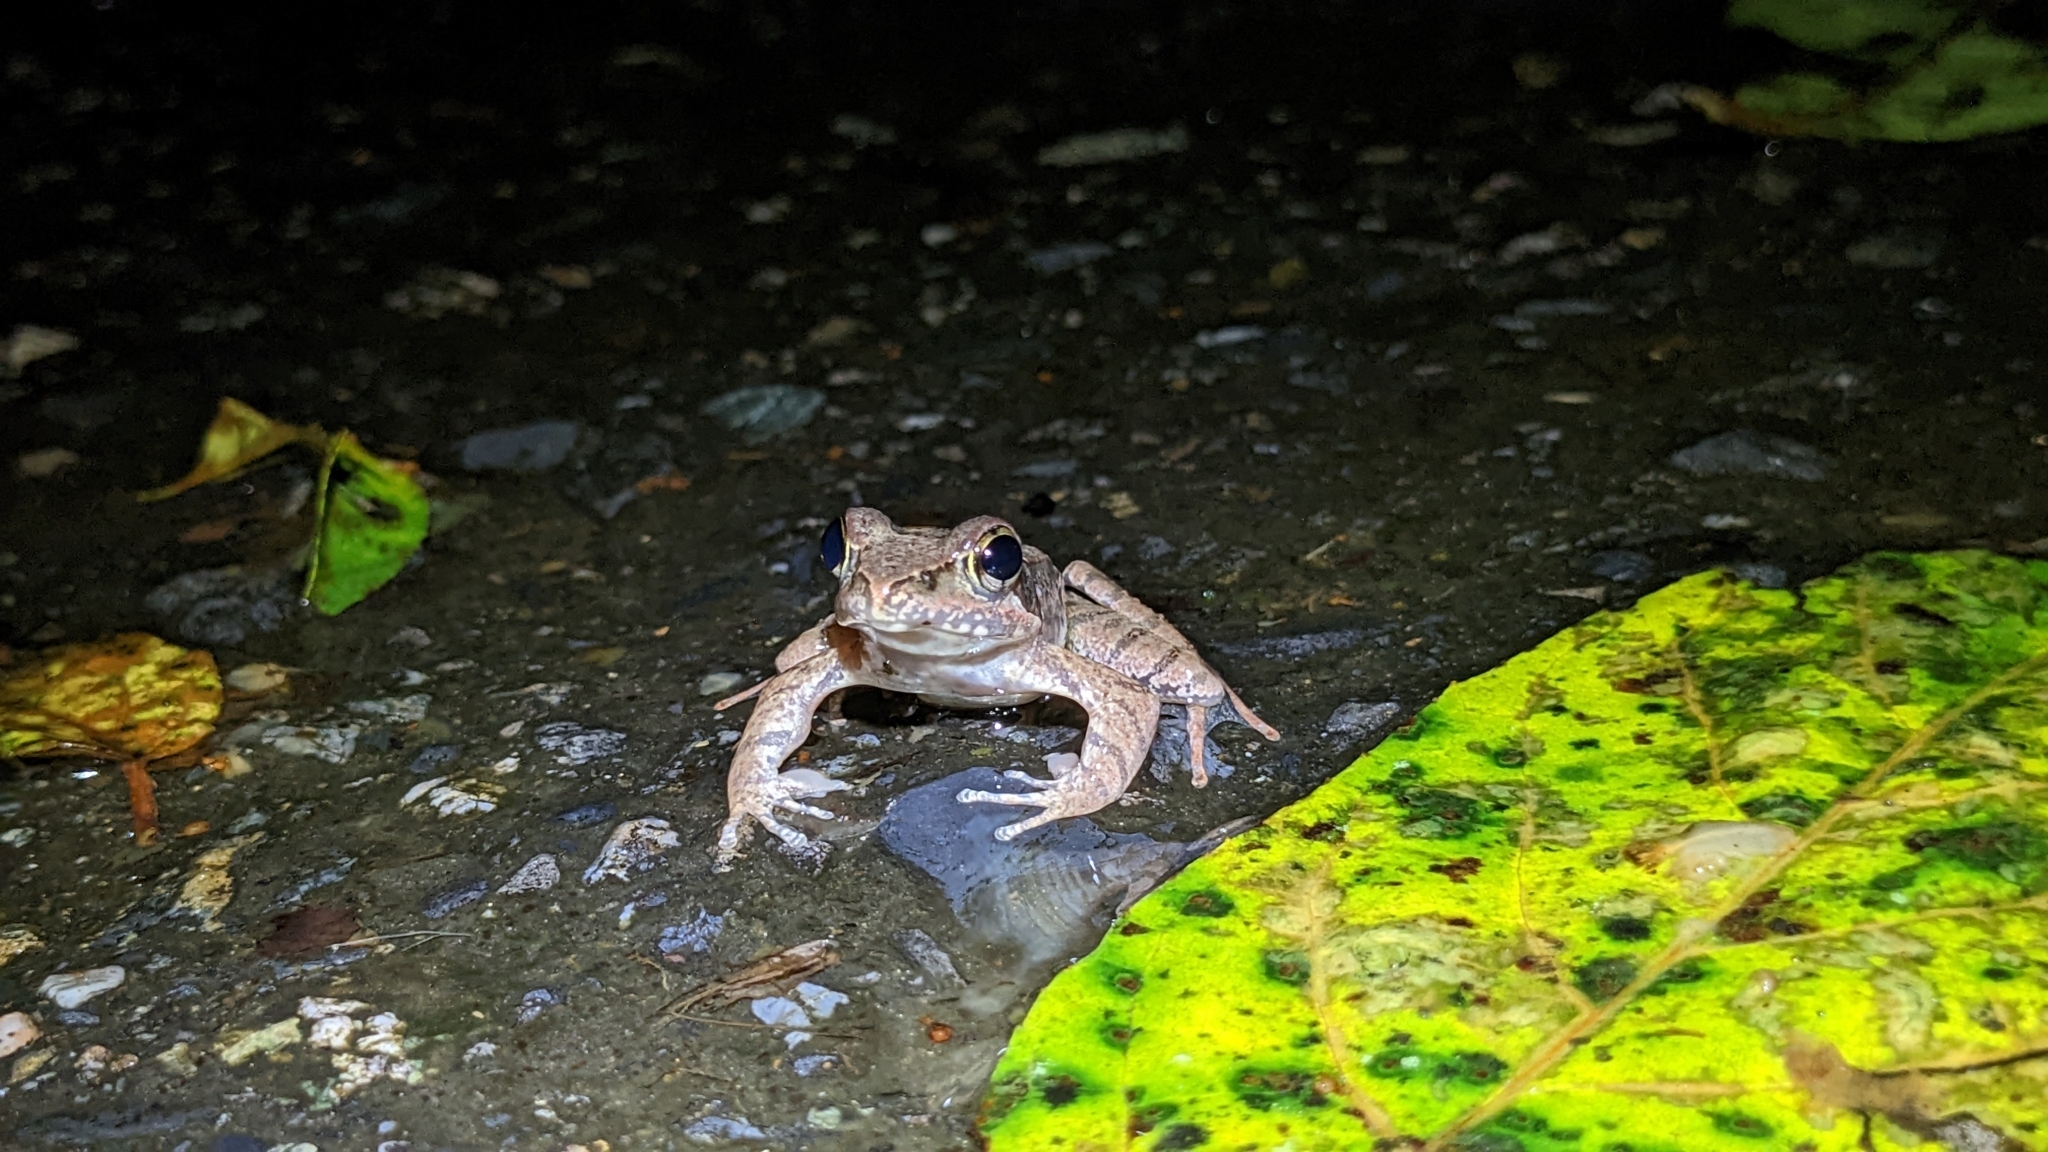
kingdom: Animalia
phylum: Chordata
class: Amphibia
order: Anura
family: Ranidae
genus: Rana
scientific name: Rana sauteri
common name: Kanshirei village frog
